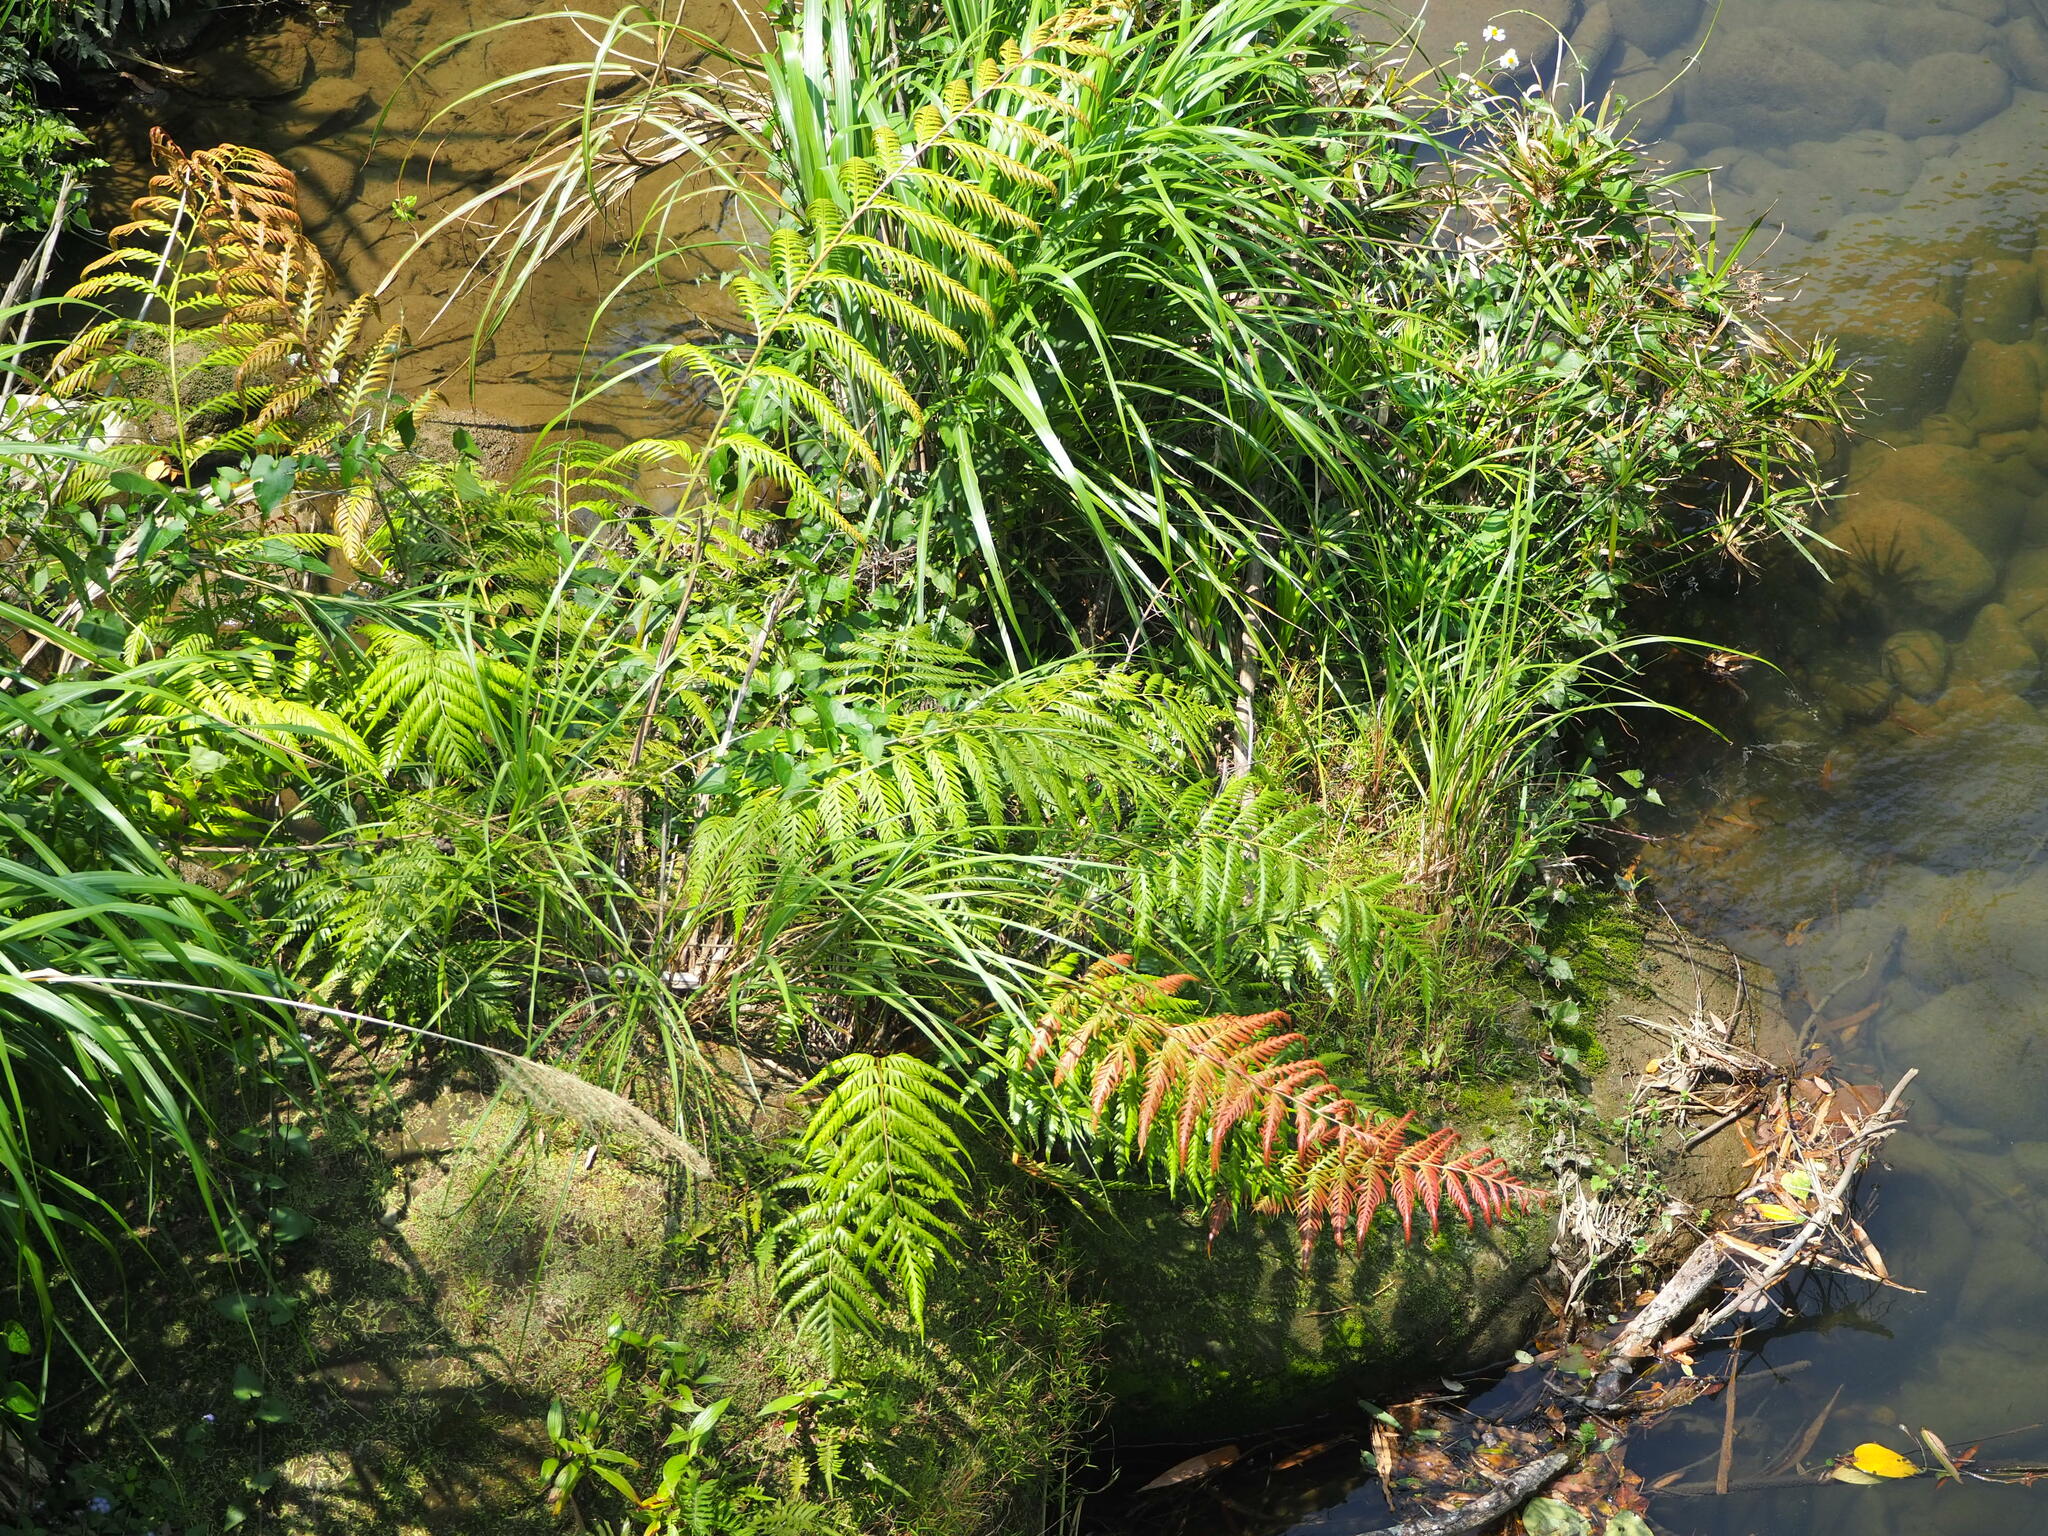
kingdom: Plantae
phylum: Tracheophyta
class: Polypodiopsida
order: Polypodiales
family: Blechnaceae
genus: Woodwardia
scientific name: Woodwardia prolifera
